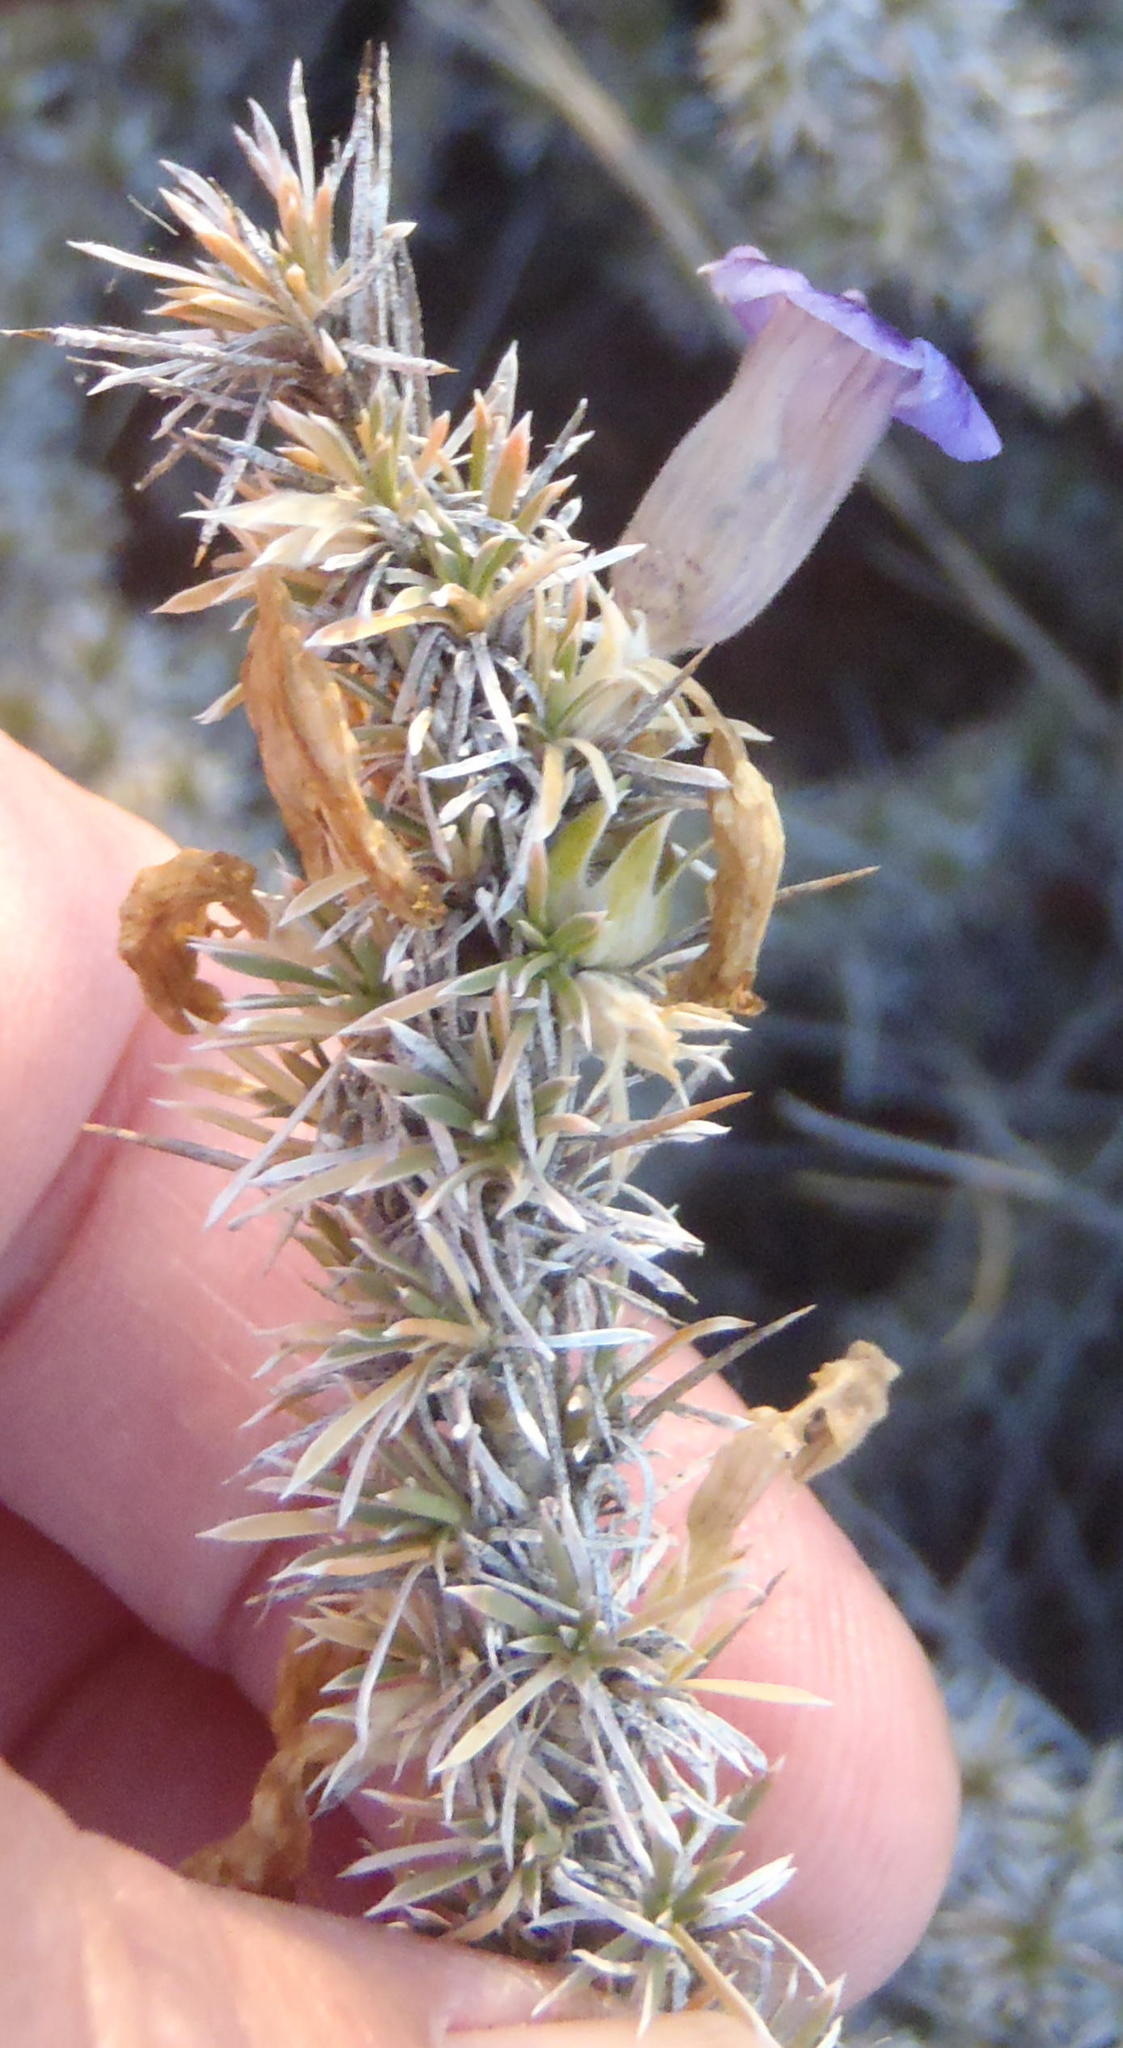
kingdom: Plantae
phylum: Tracheophyta
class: Magnoliopsida
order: Lamiales
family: Scrophulariaceae
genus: Aptosimum
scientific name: Aptosimum spinescens
